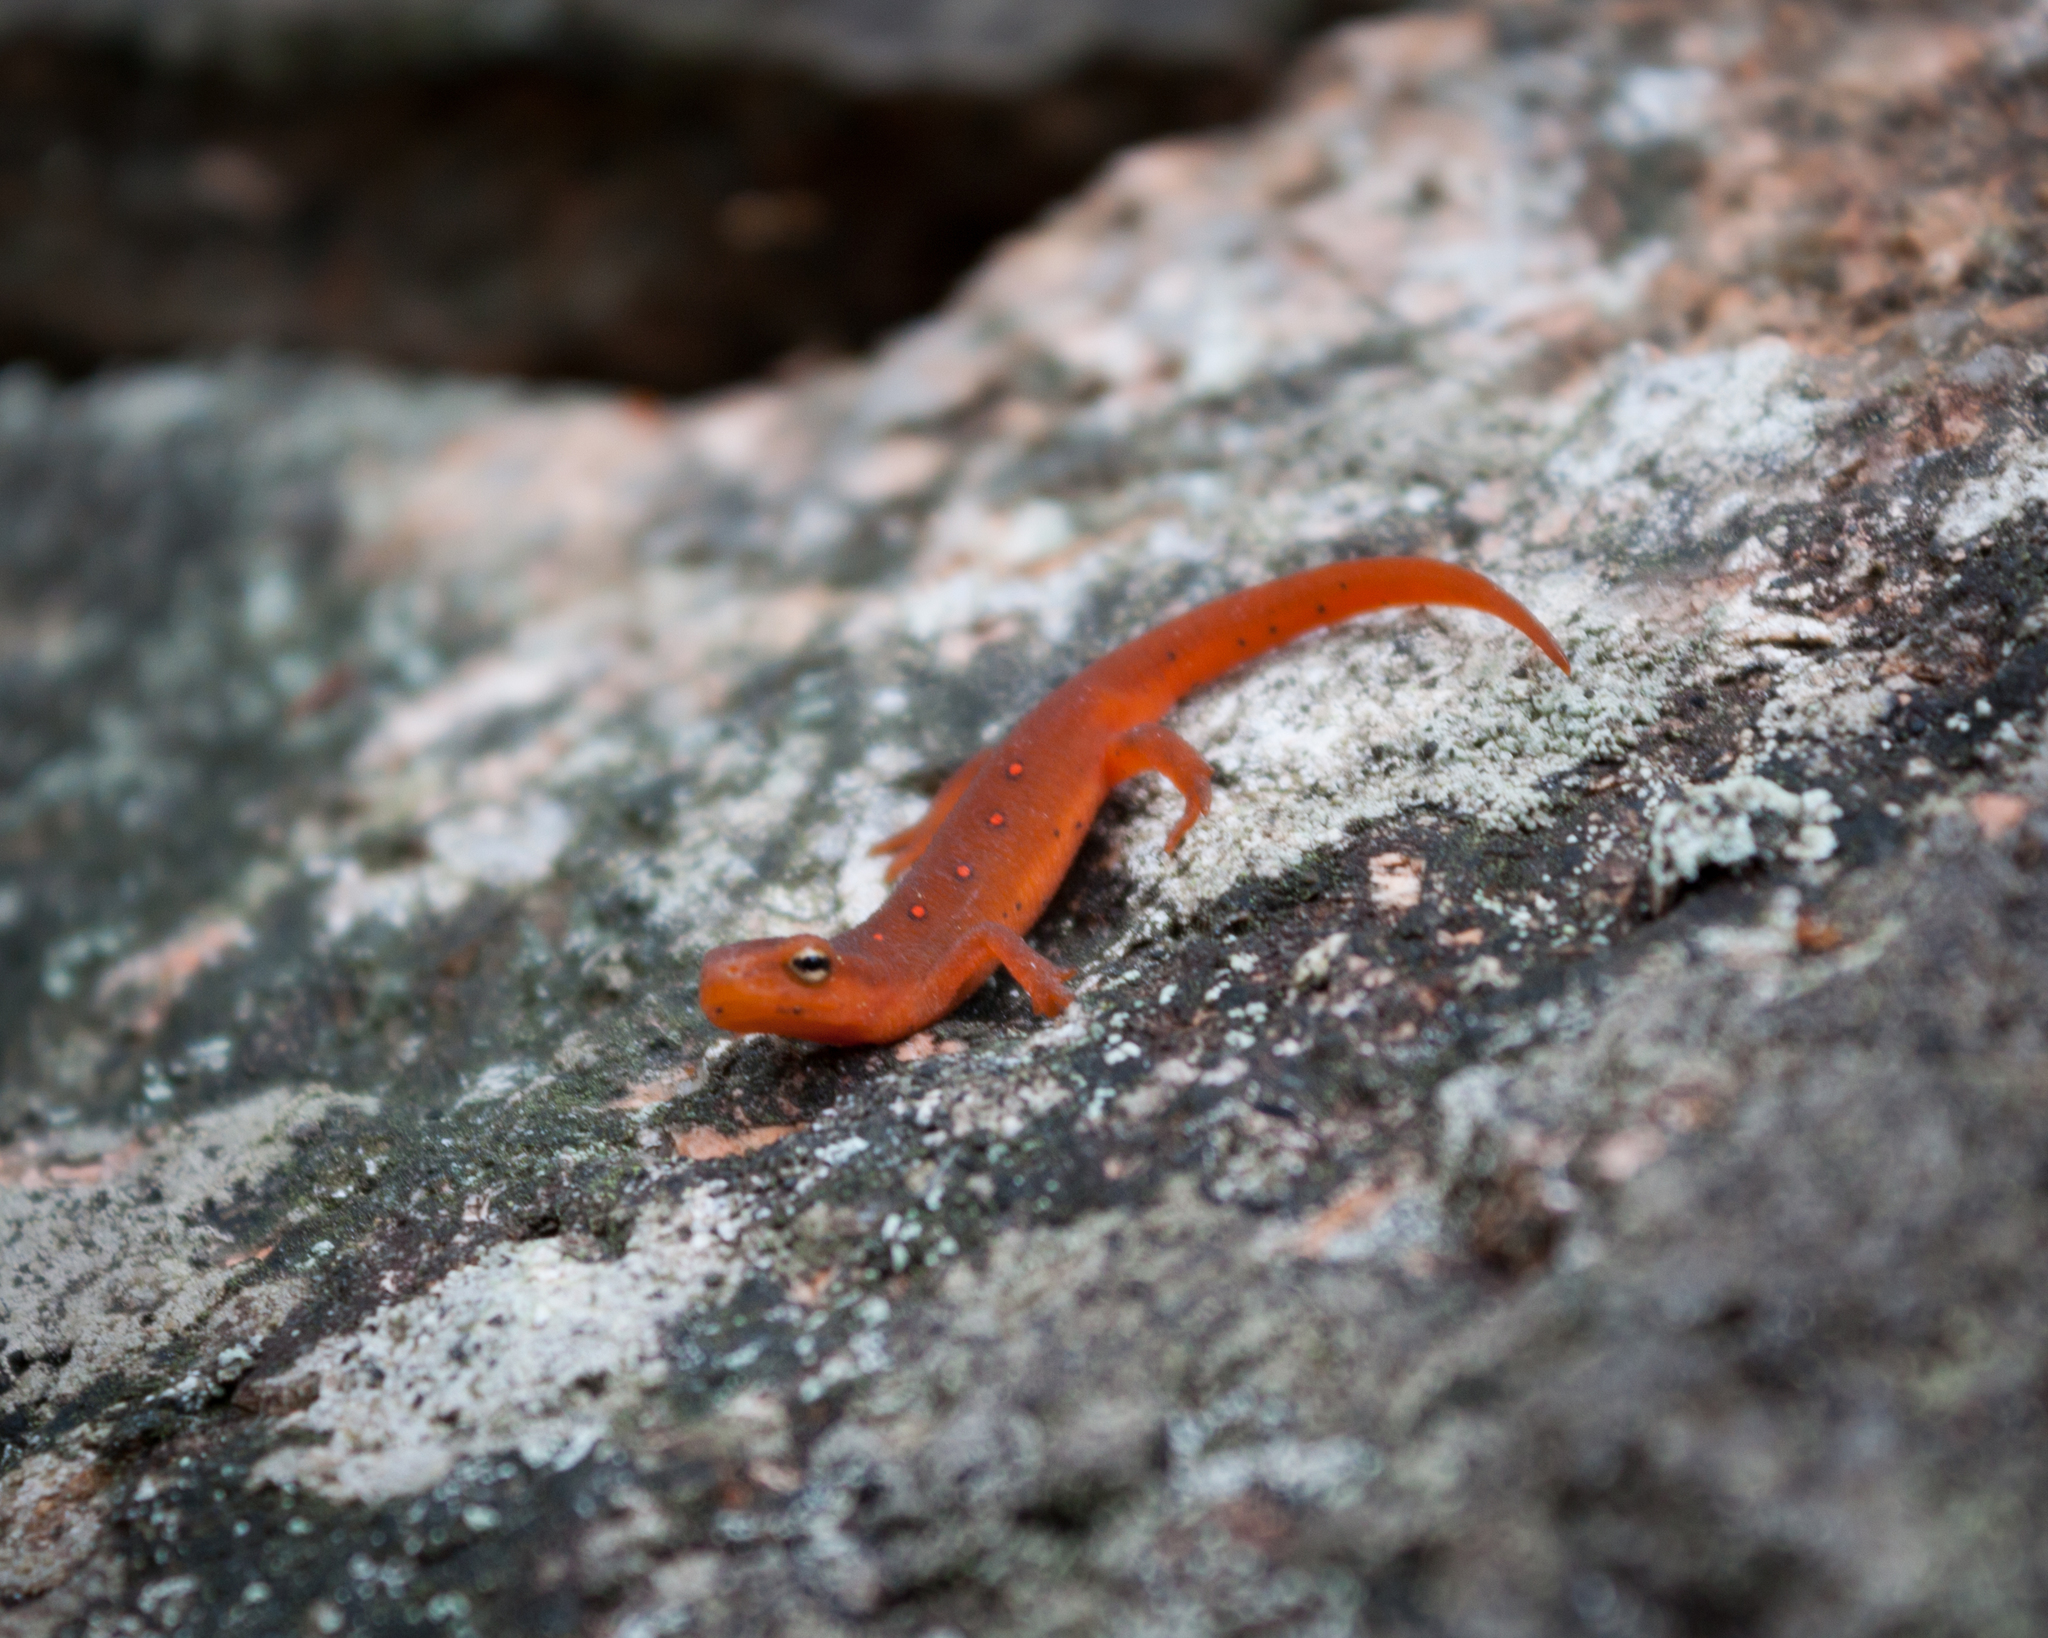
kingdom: Animalia
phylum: Chordata
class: Amphibia
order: Caudata
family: Salamandridae
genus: Notophthalmus
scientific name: Notophthalmus viridescens
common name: Eastern newt
